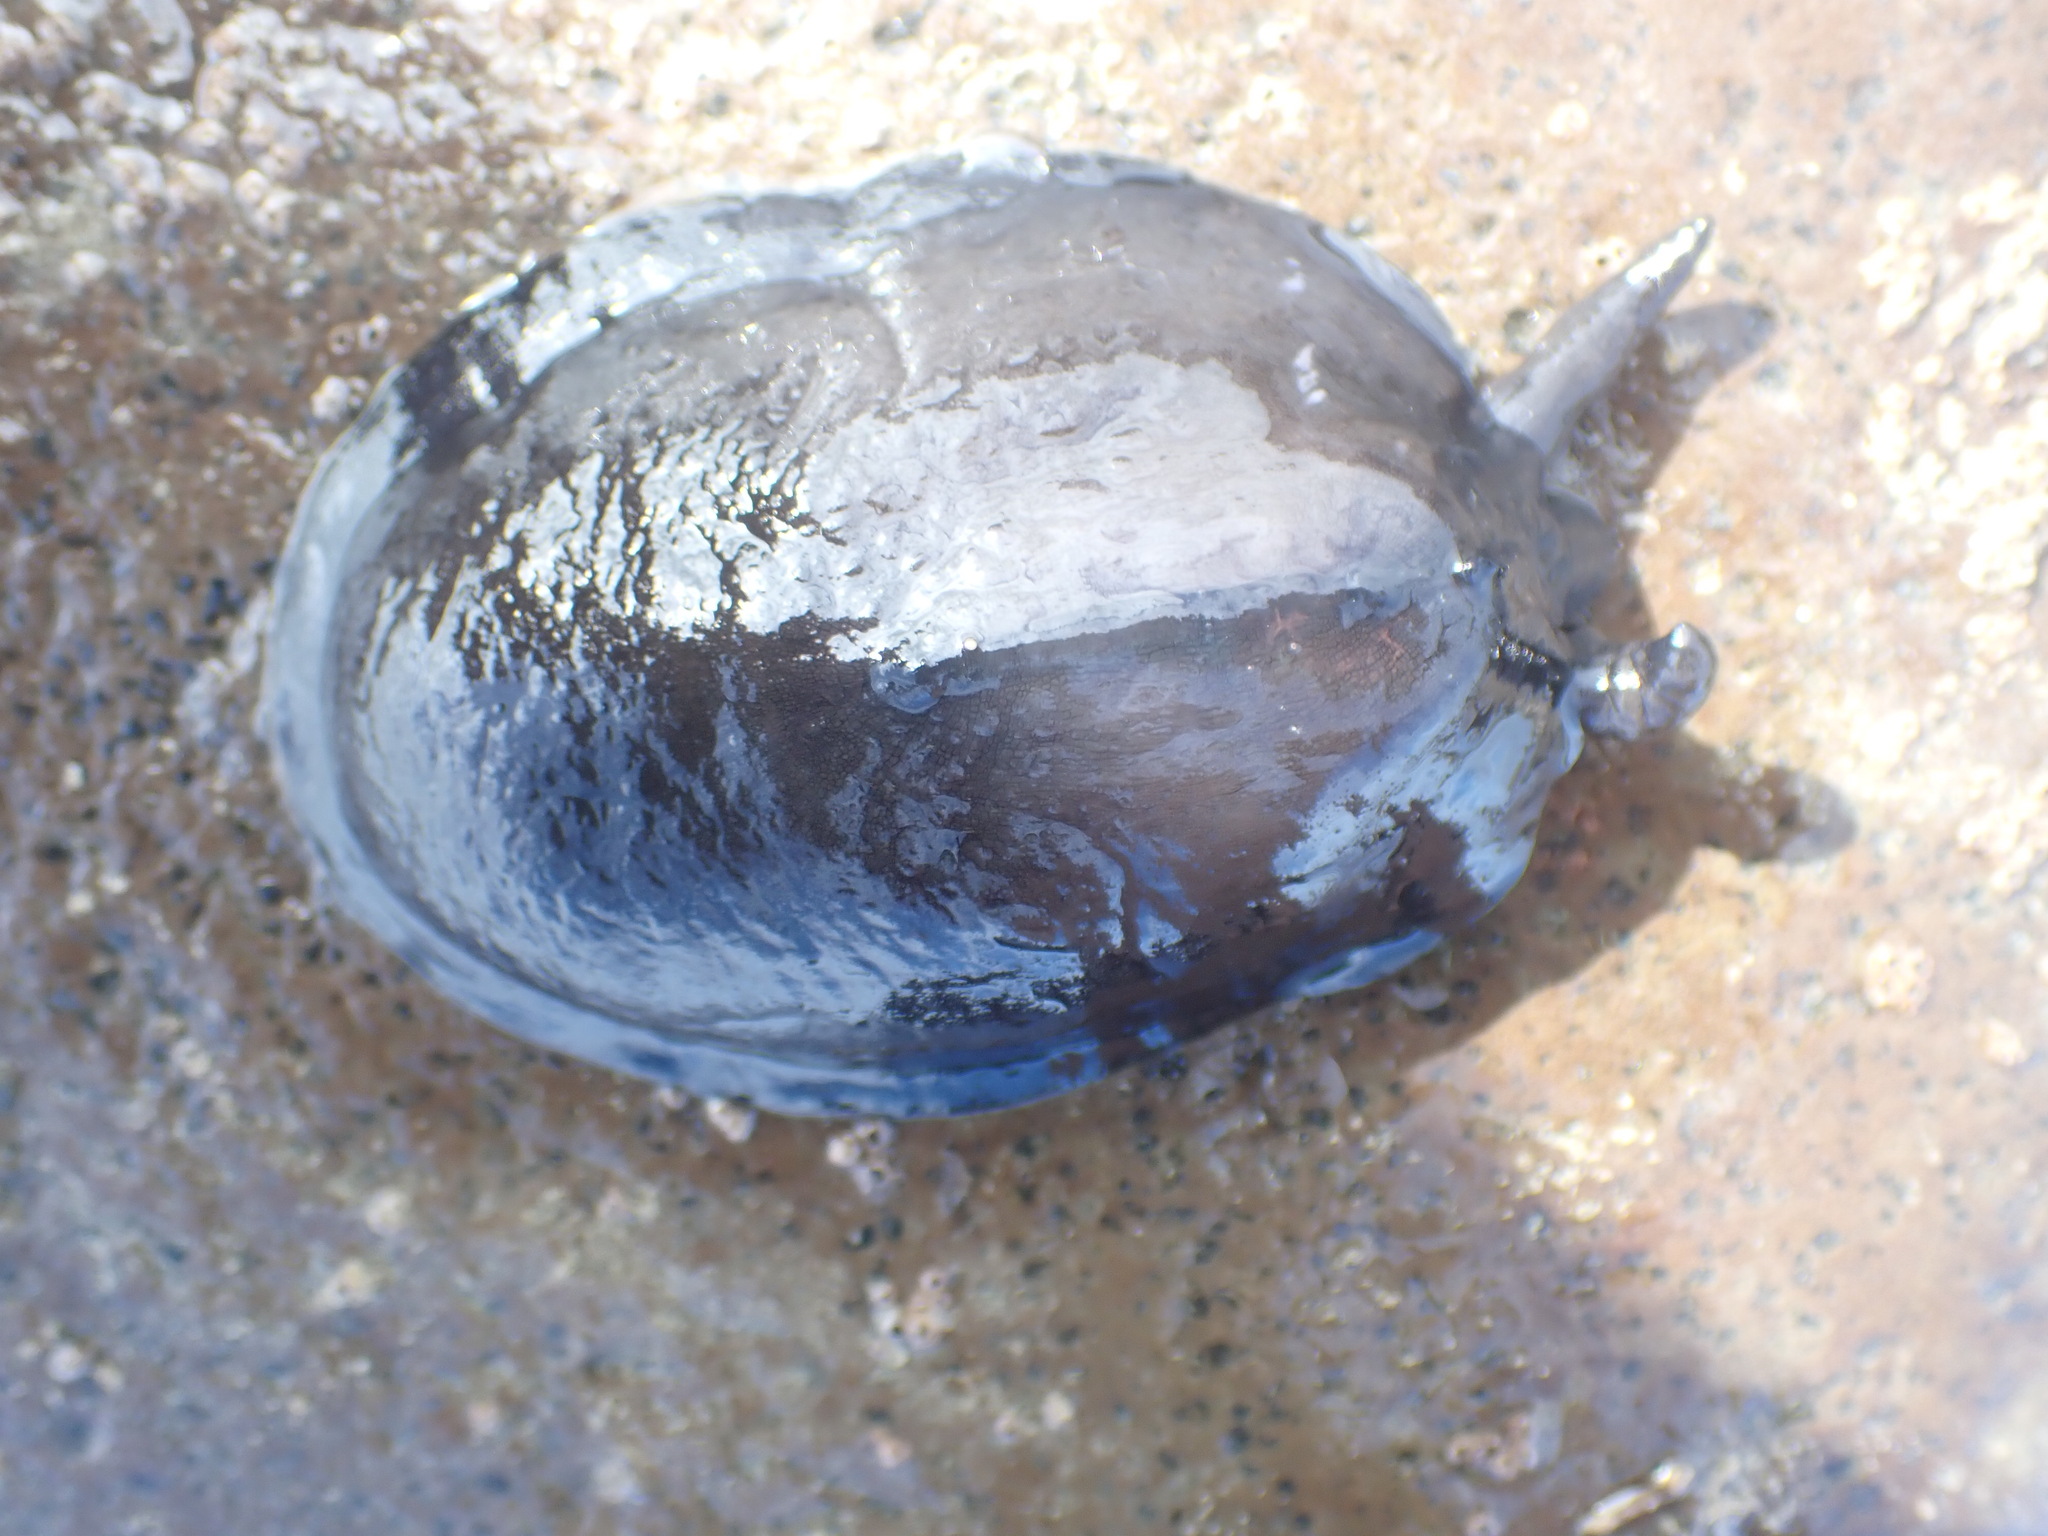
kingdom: Animalia
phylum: Mollusca
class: Gastropoda
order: Lepetellida
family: Fissurellidae
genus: Scutus
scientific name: Scutus breviculus
